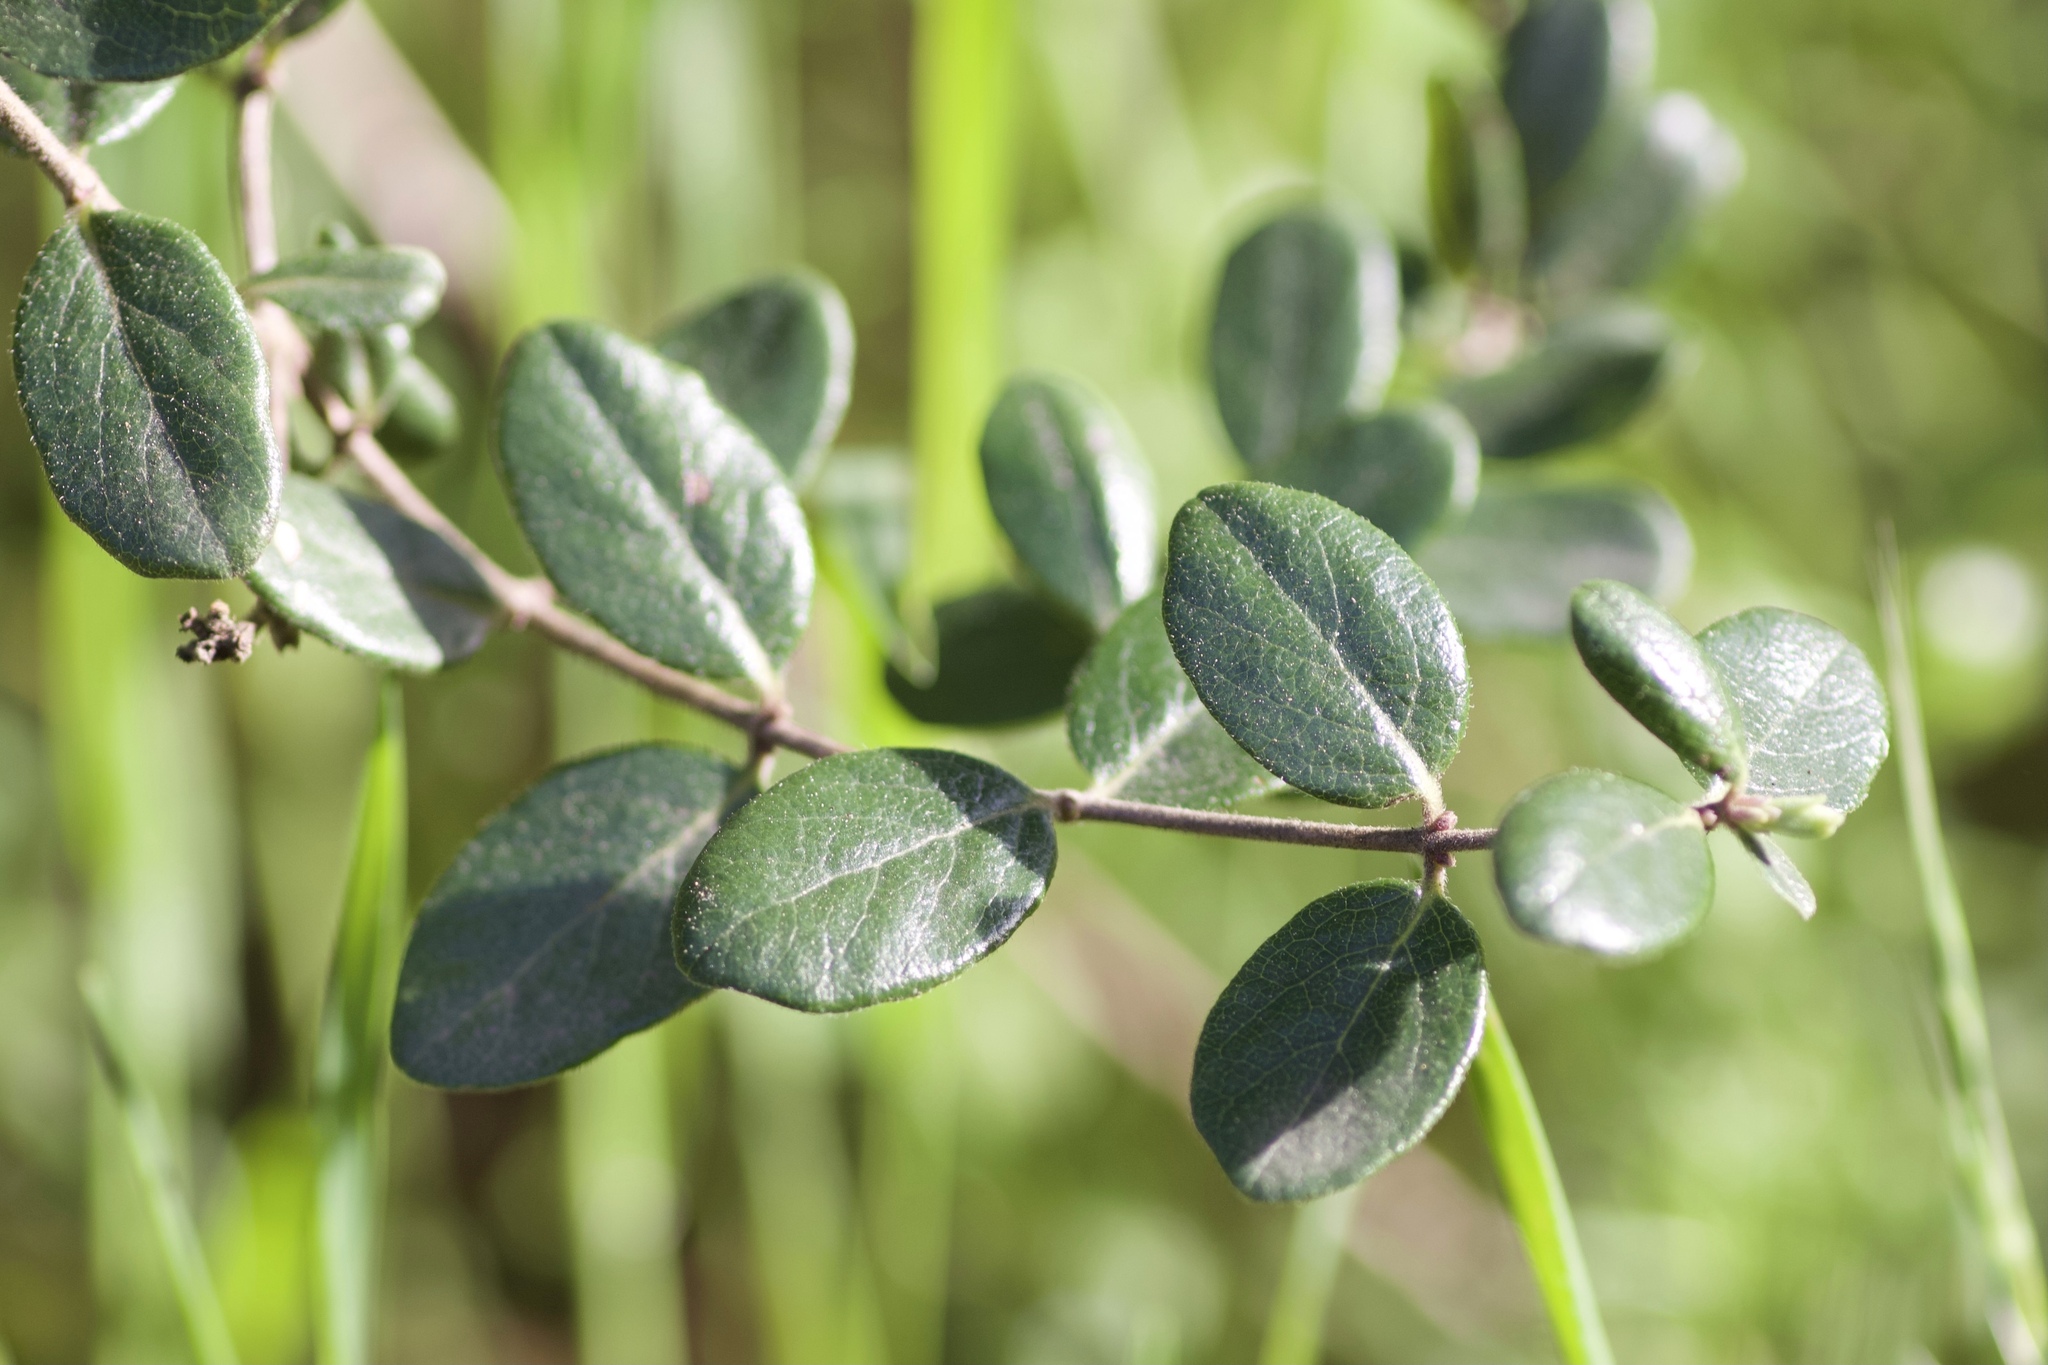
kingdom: Plantae
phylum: Tracheophyta
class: Magnoliopsida
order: Dipsacales
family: Caprifoliaceae
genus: Lonicera
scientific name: Lonicera subspicata
